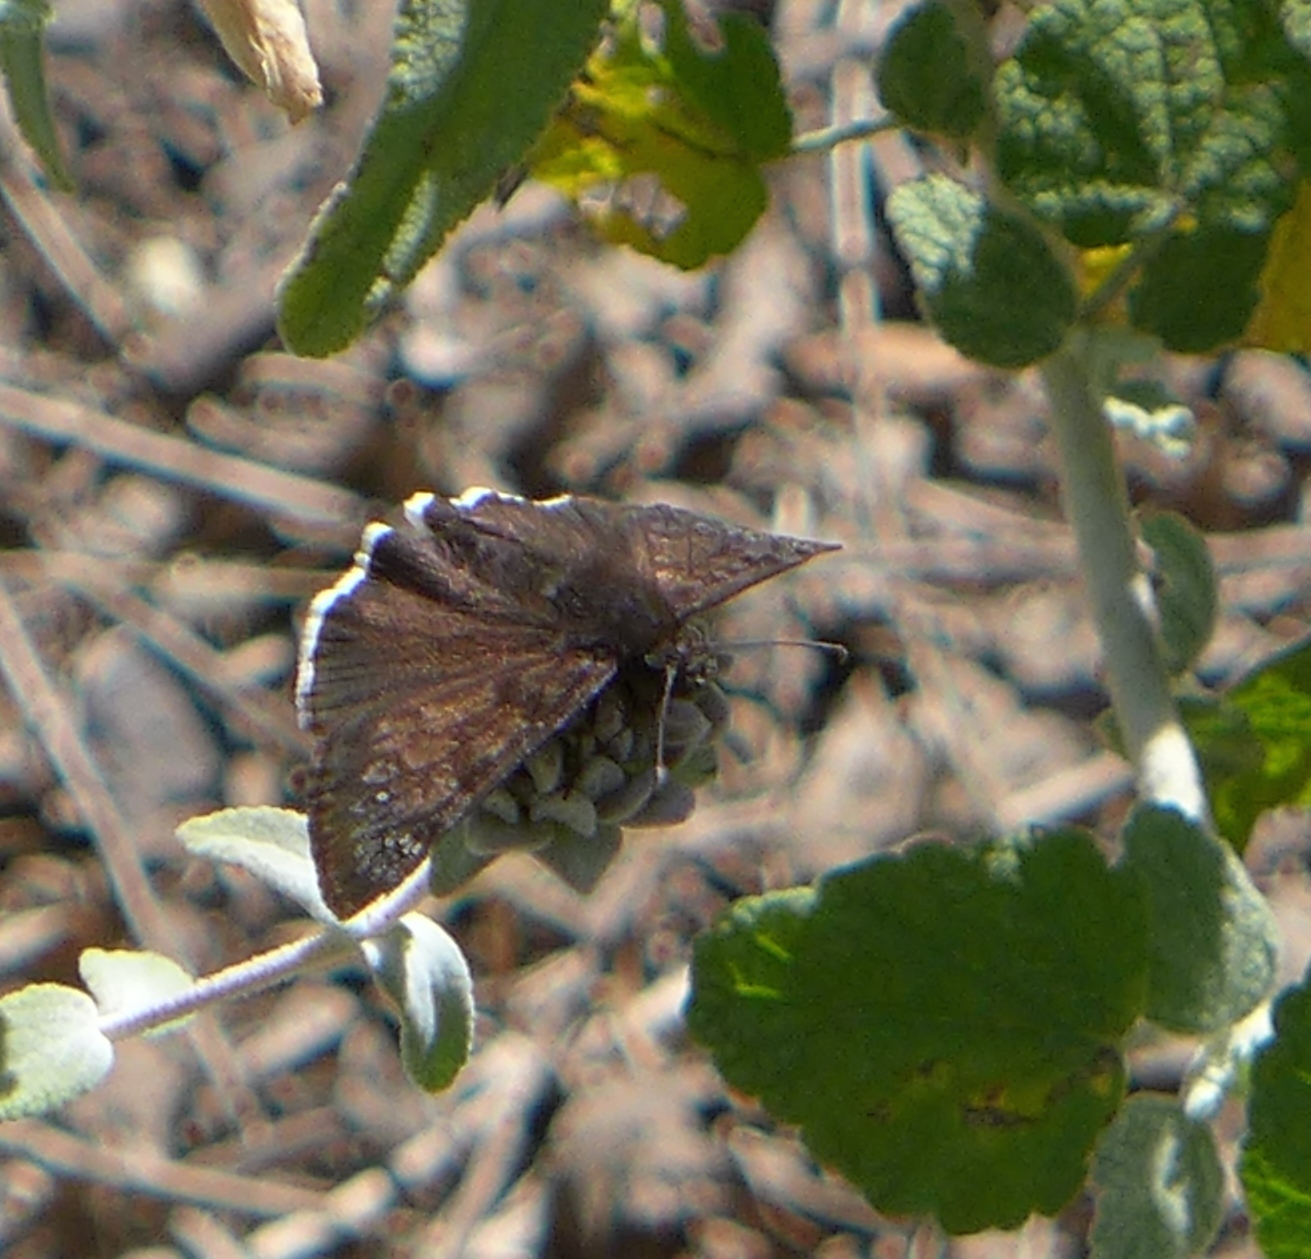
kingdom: Animalia
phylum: Arthropoda
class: Insecta
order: Lepidoptera
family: Hesperiidae
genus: Erynnis
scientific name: Erynnis tristis
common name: Mournful duskywing
